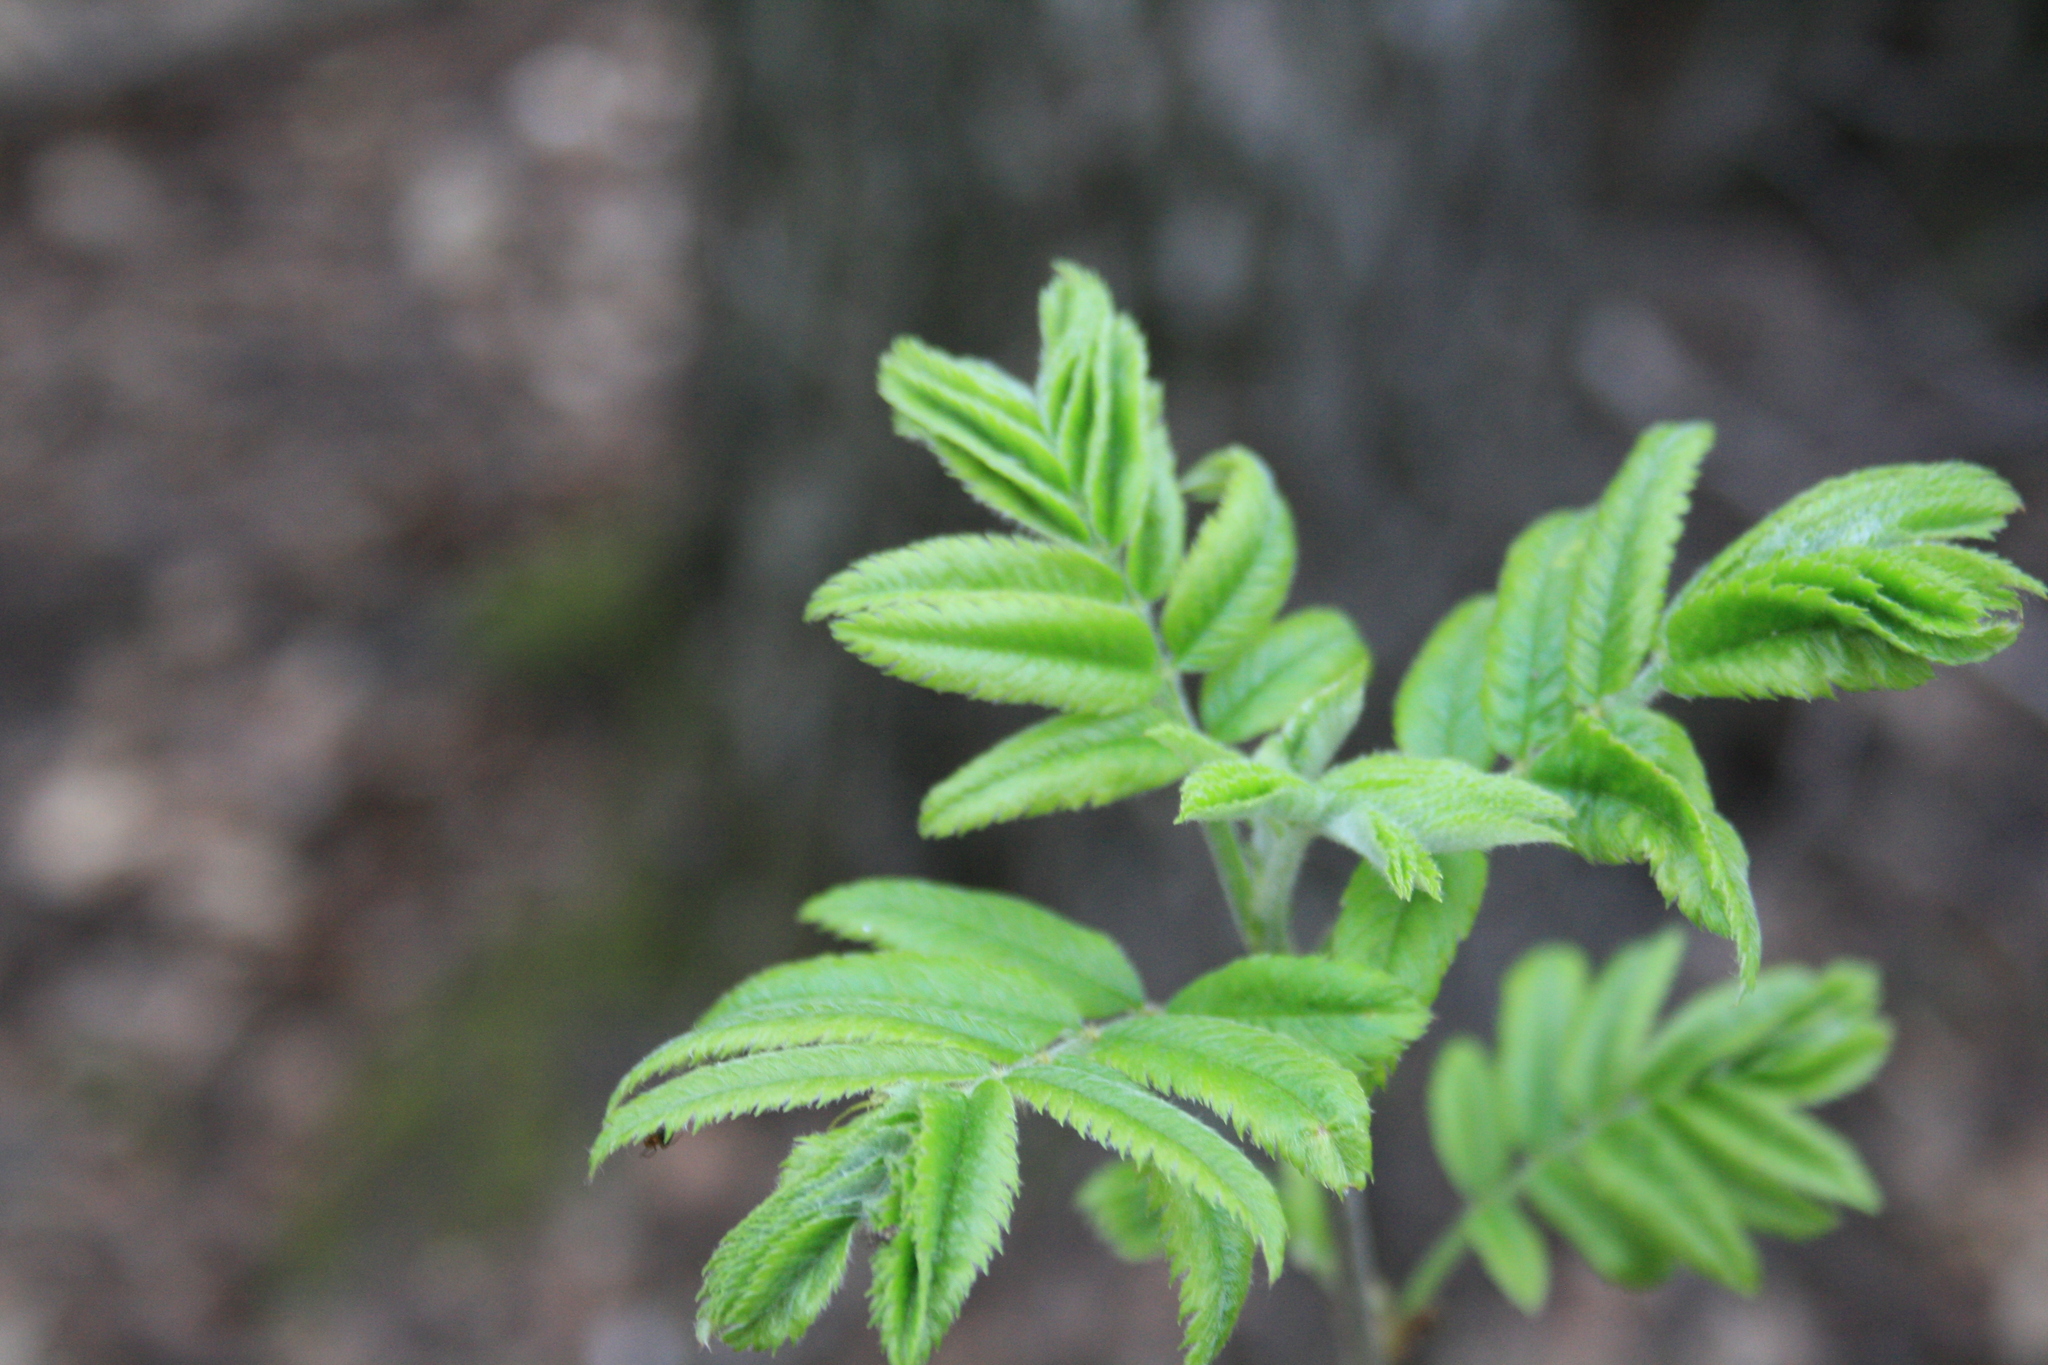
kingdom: Plantae
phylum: Tracheophyta
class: Magnoliopsida
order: Rosales
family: Rosaceae
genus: Sorbus
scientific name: Sorbus aucuparia
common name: Rowan
